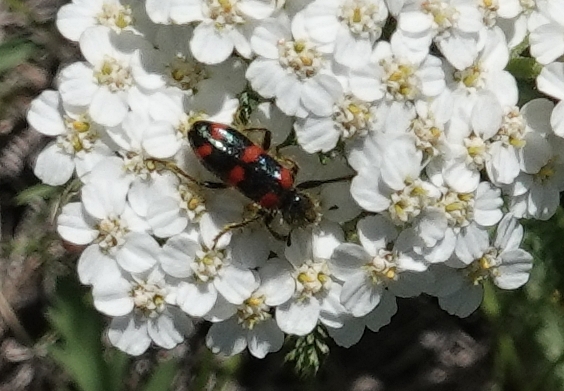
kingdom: Animalia
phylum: Arthropoda
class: Insecta
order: Coleoptera
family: Cleridae
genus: Trichodes
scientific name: Trichodes nutalli
